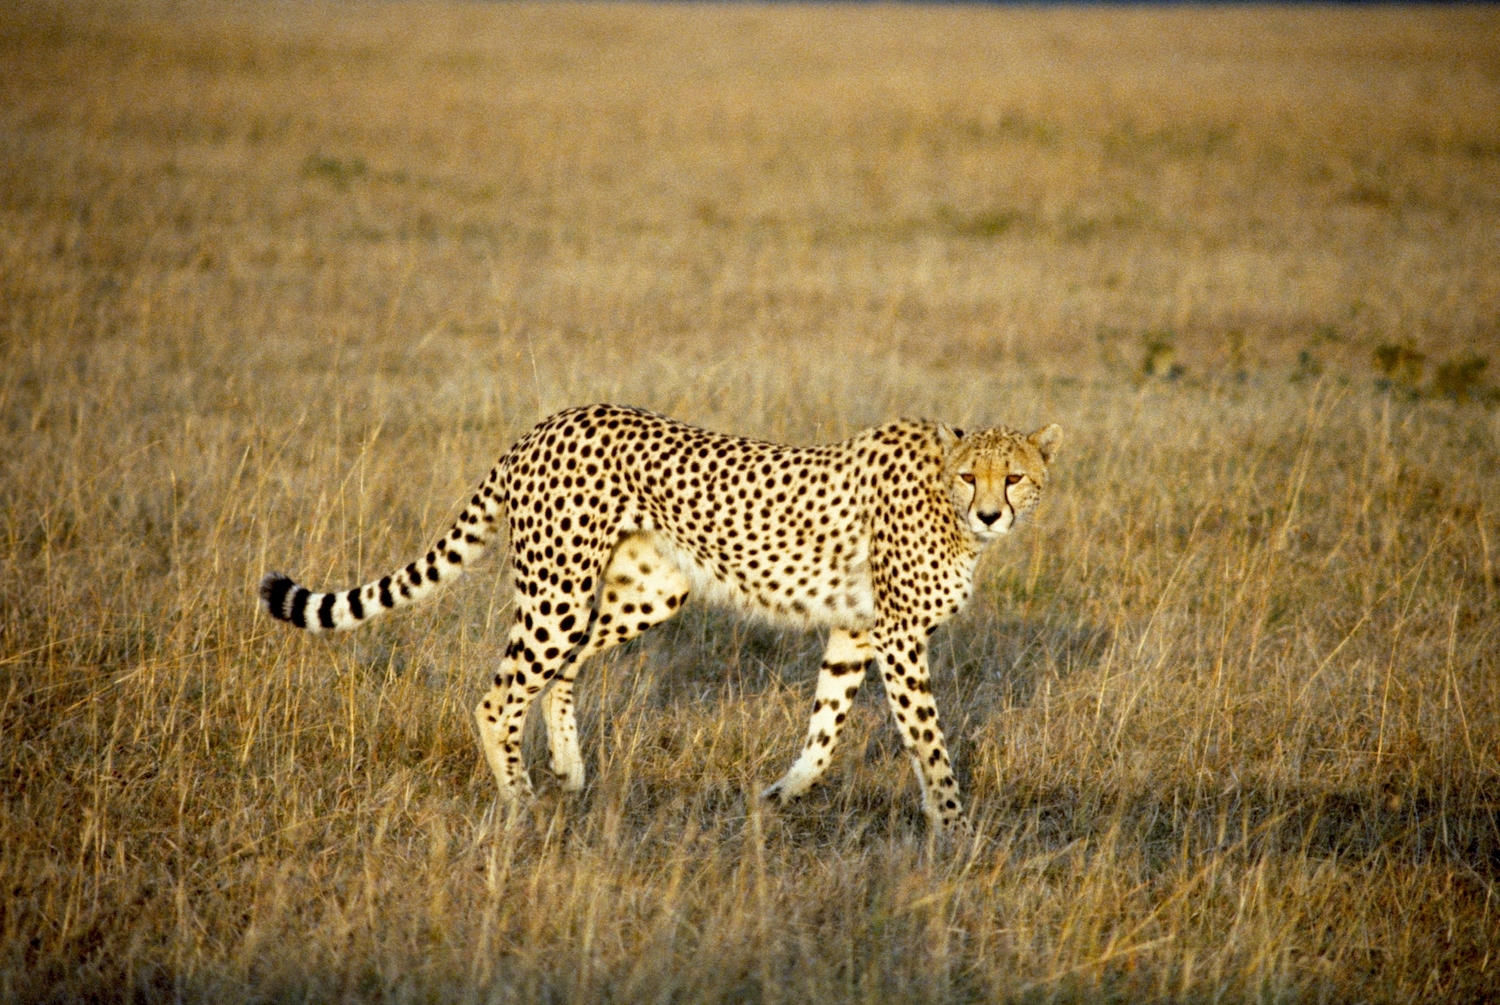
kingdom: Animalia
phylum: Chordata
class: Mammalia
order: Carnivora
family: Felidae
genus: Acinonyx
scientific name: Acinonyx jubatus
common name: Cheetah
